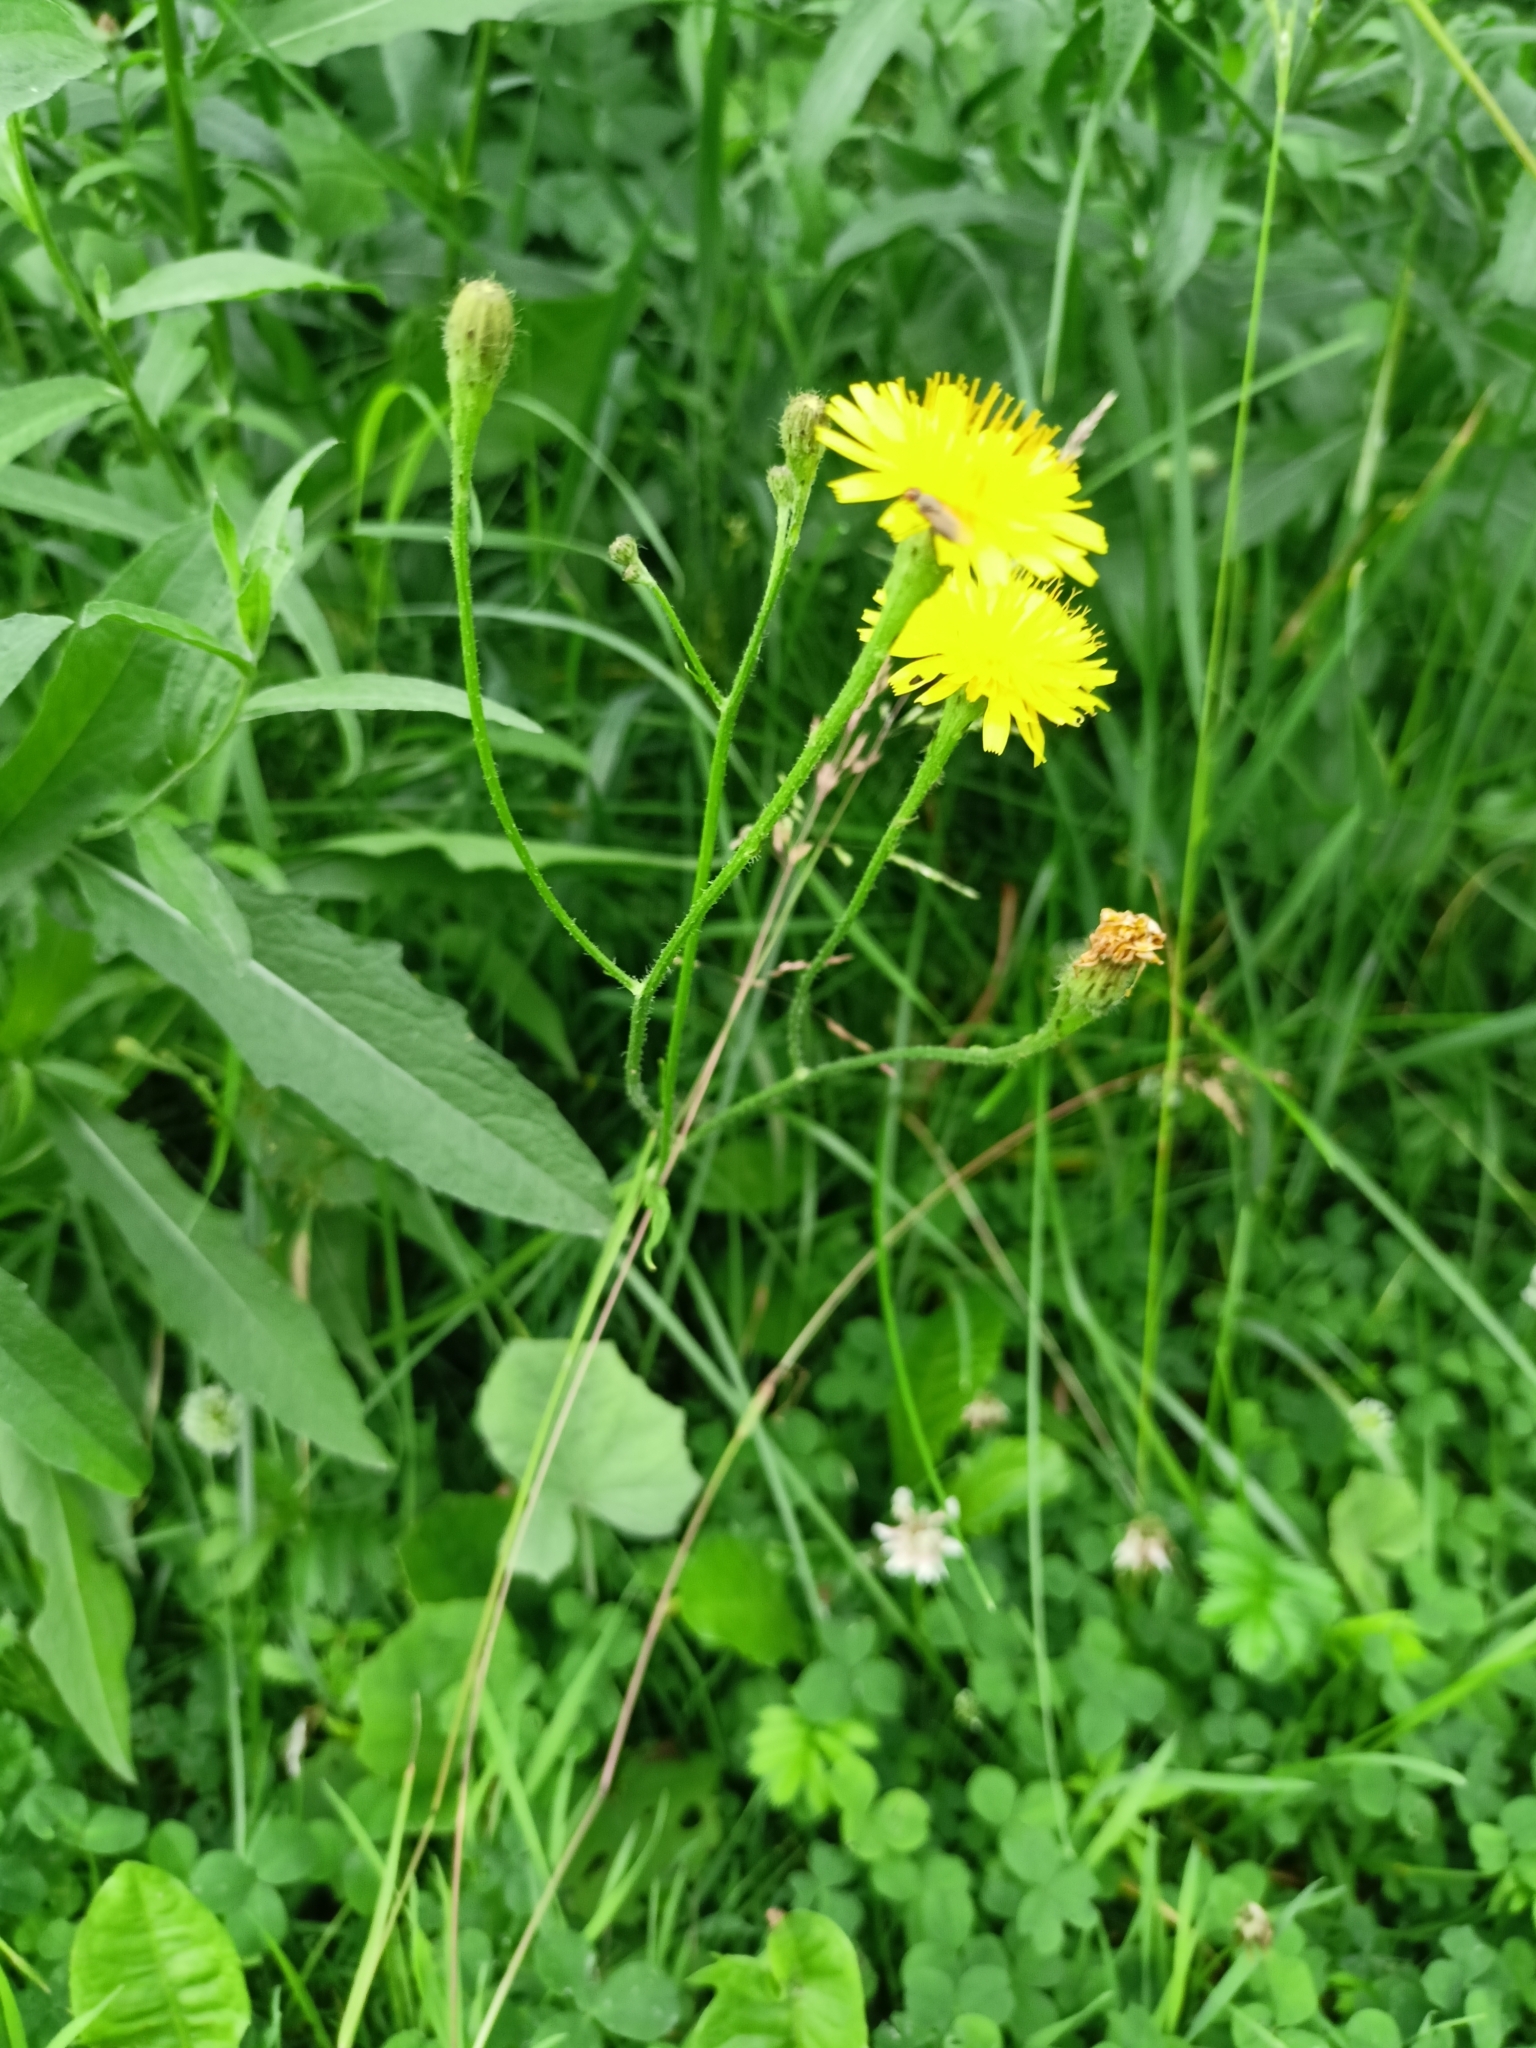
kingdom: Plantae
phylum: Tracheophyta
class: Magnoliopsida
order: Asterales
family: Asteraceae
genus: Scorzoneroides
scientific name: Scorzoneroides autumnalis
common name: Autumn hawkbit
